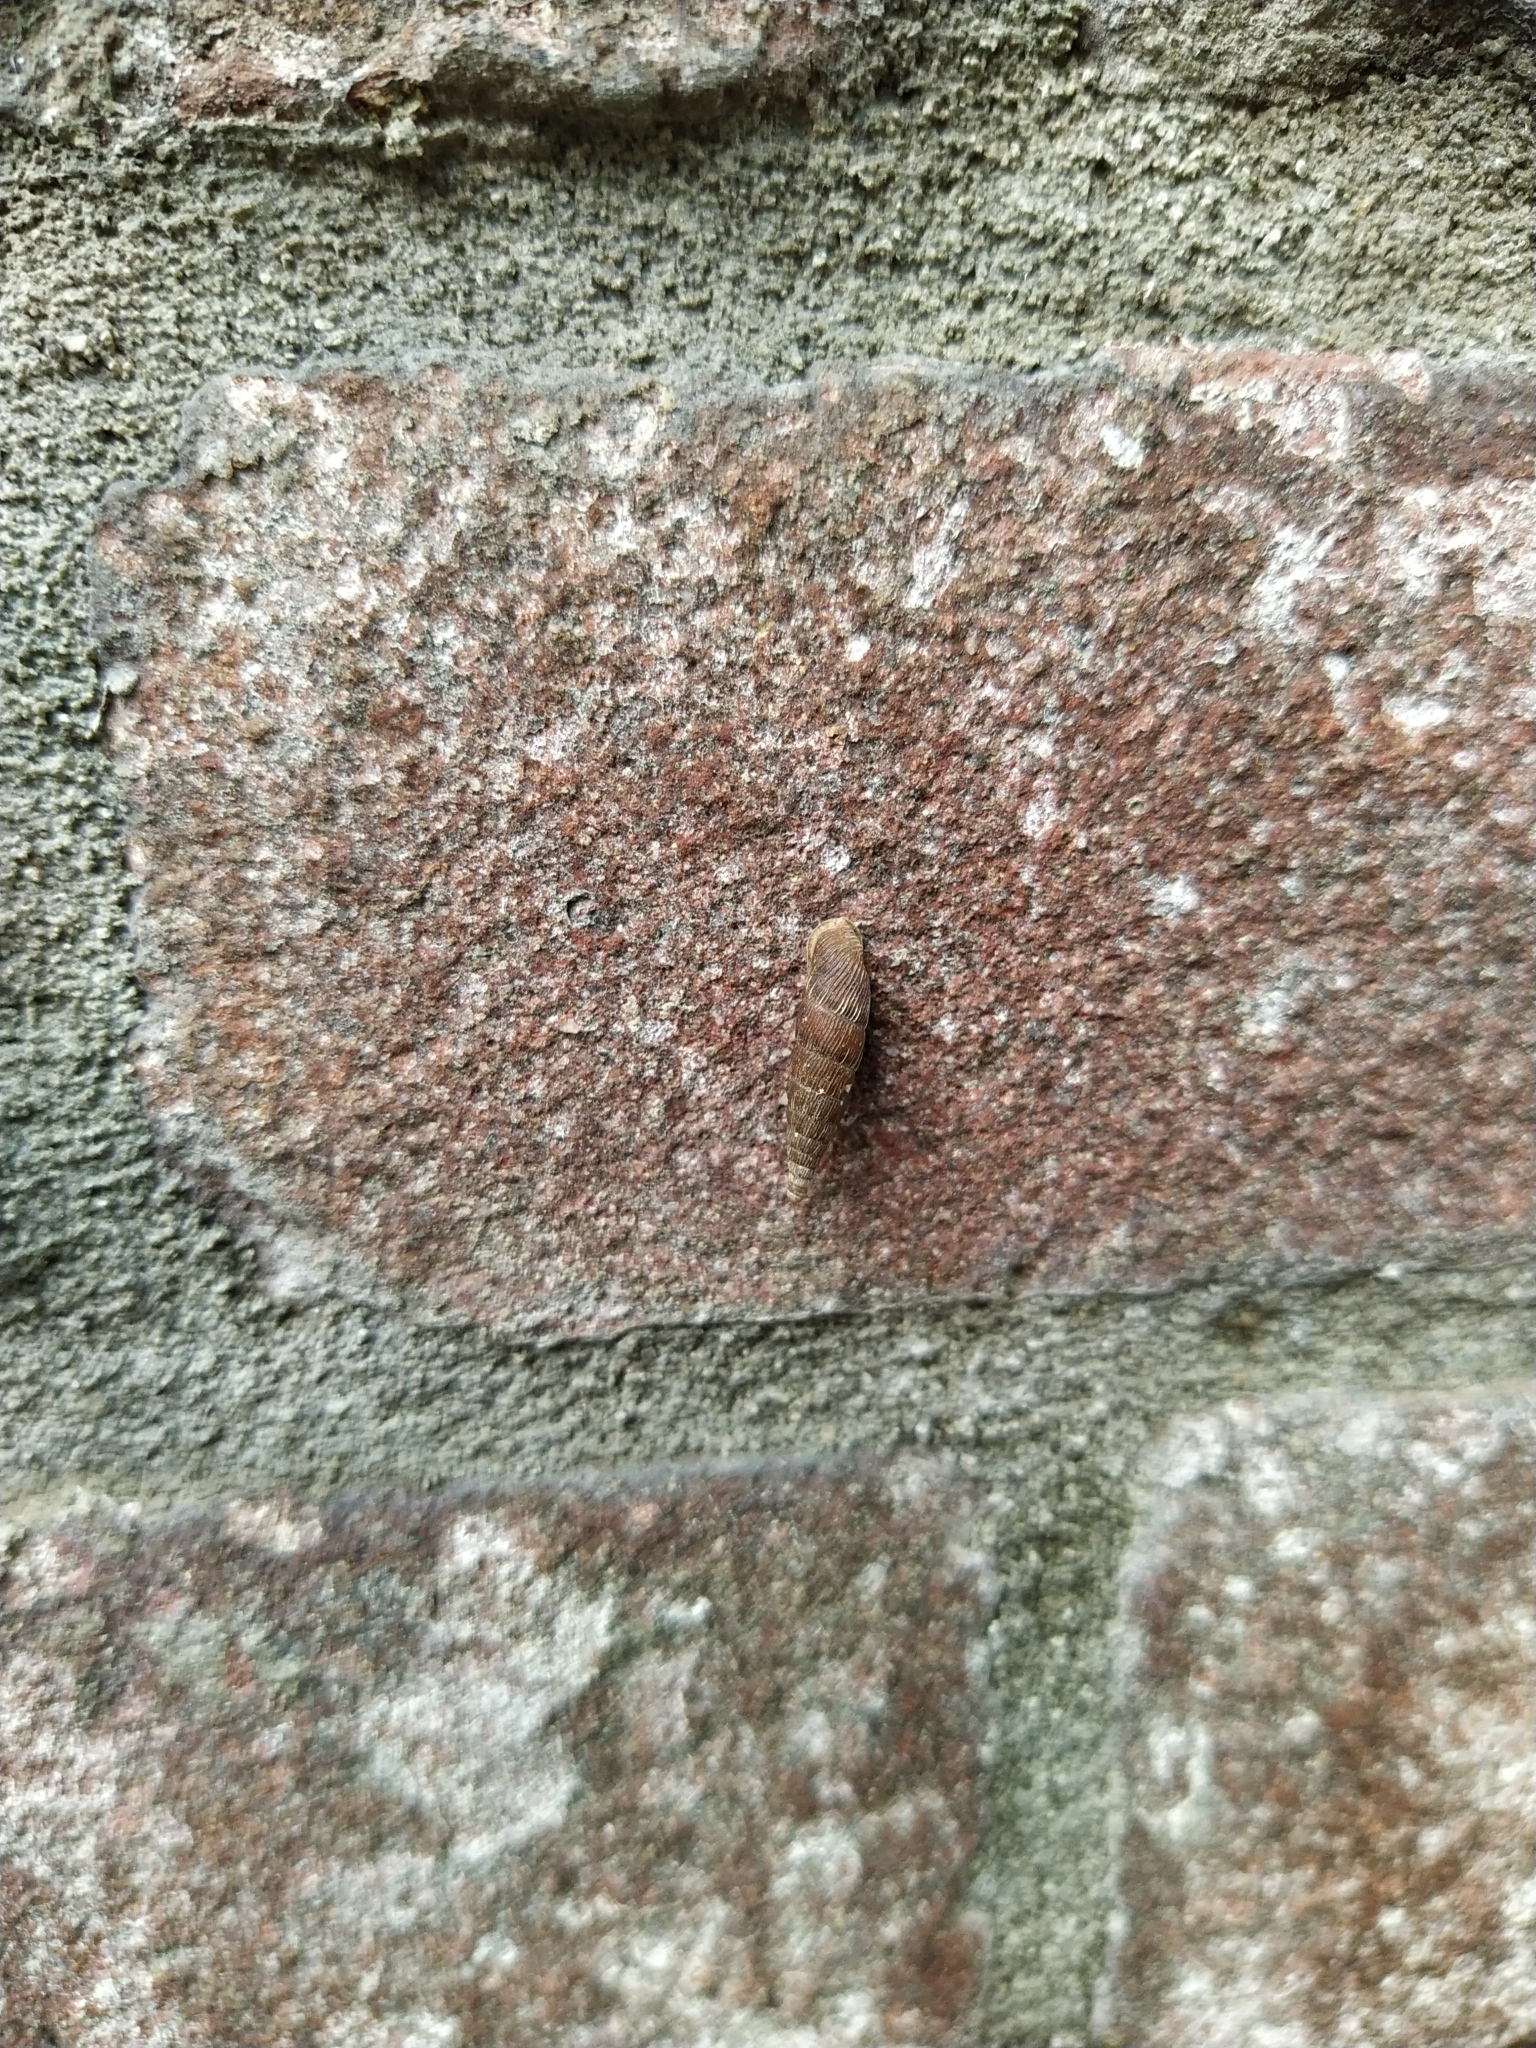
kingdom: Animalia
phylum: Mollusca
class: Gastropoda
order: Stylommatophora
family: Clausiliidae
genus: Alinda
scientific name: Alinda biplicata
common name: Thames door snail
